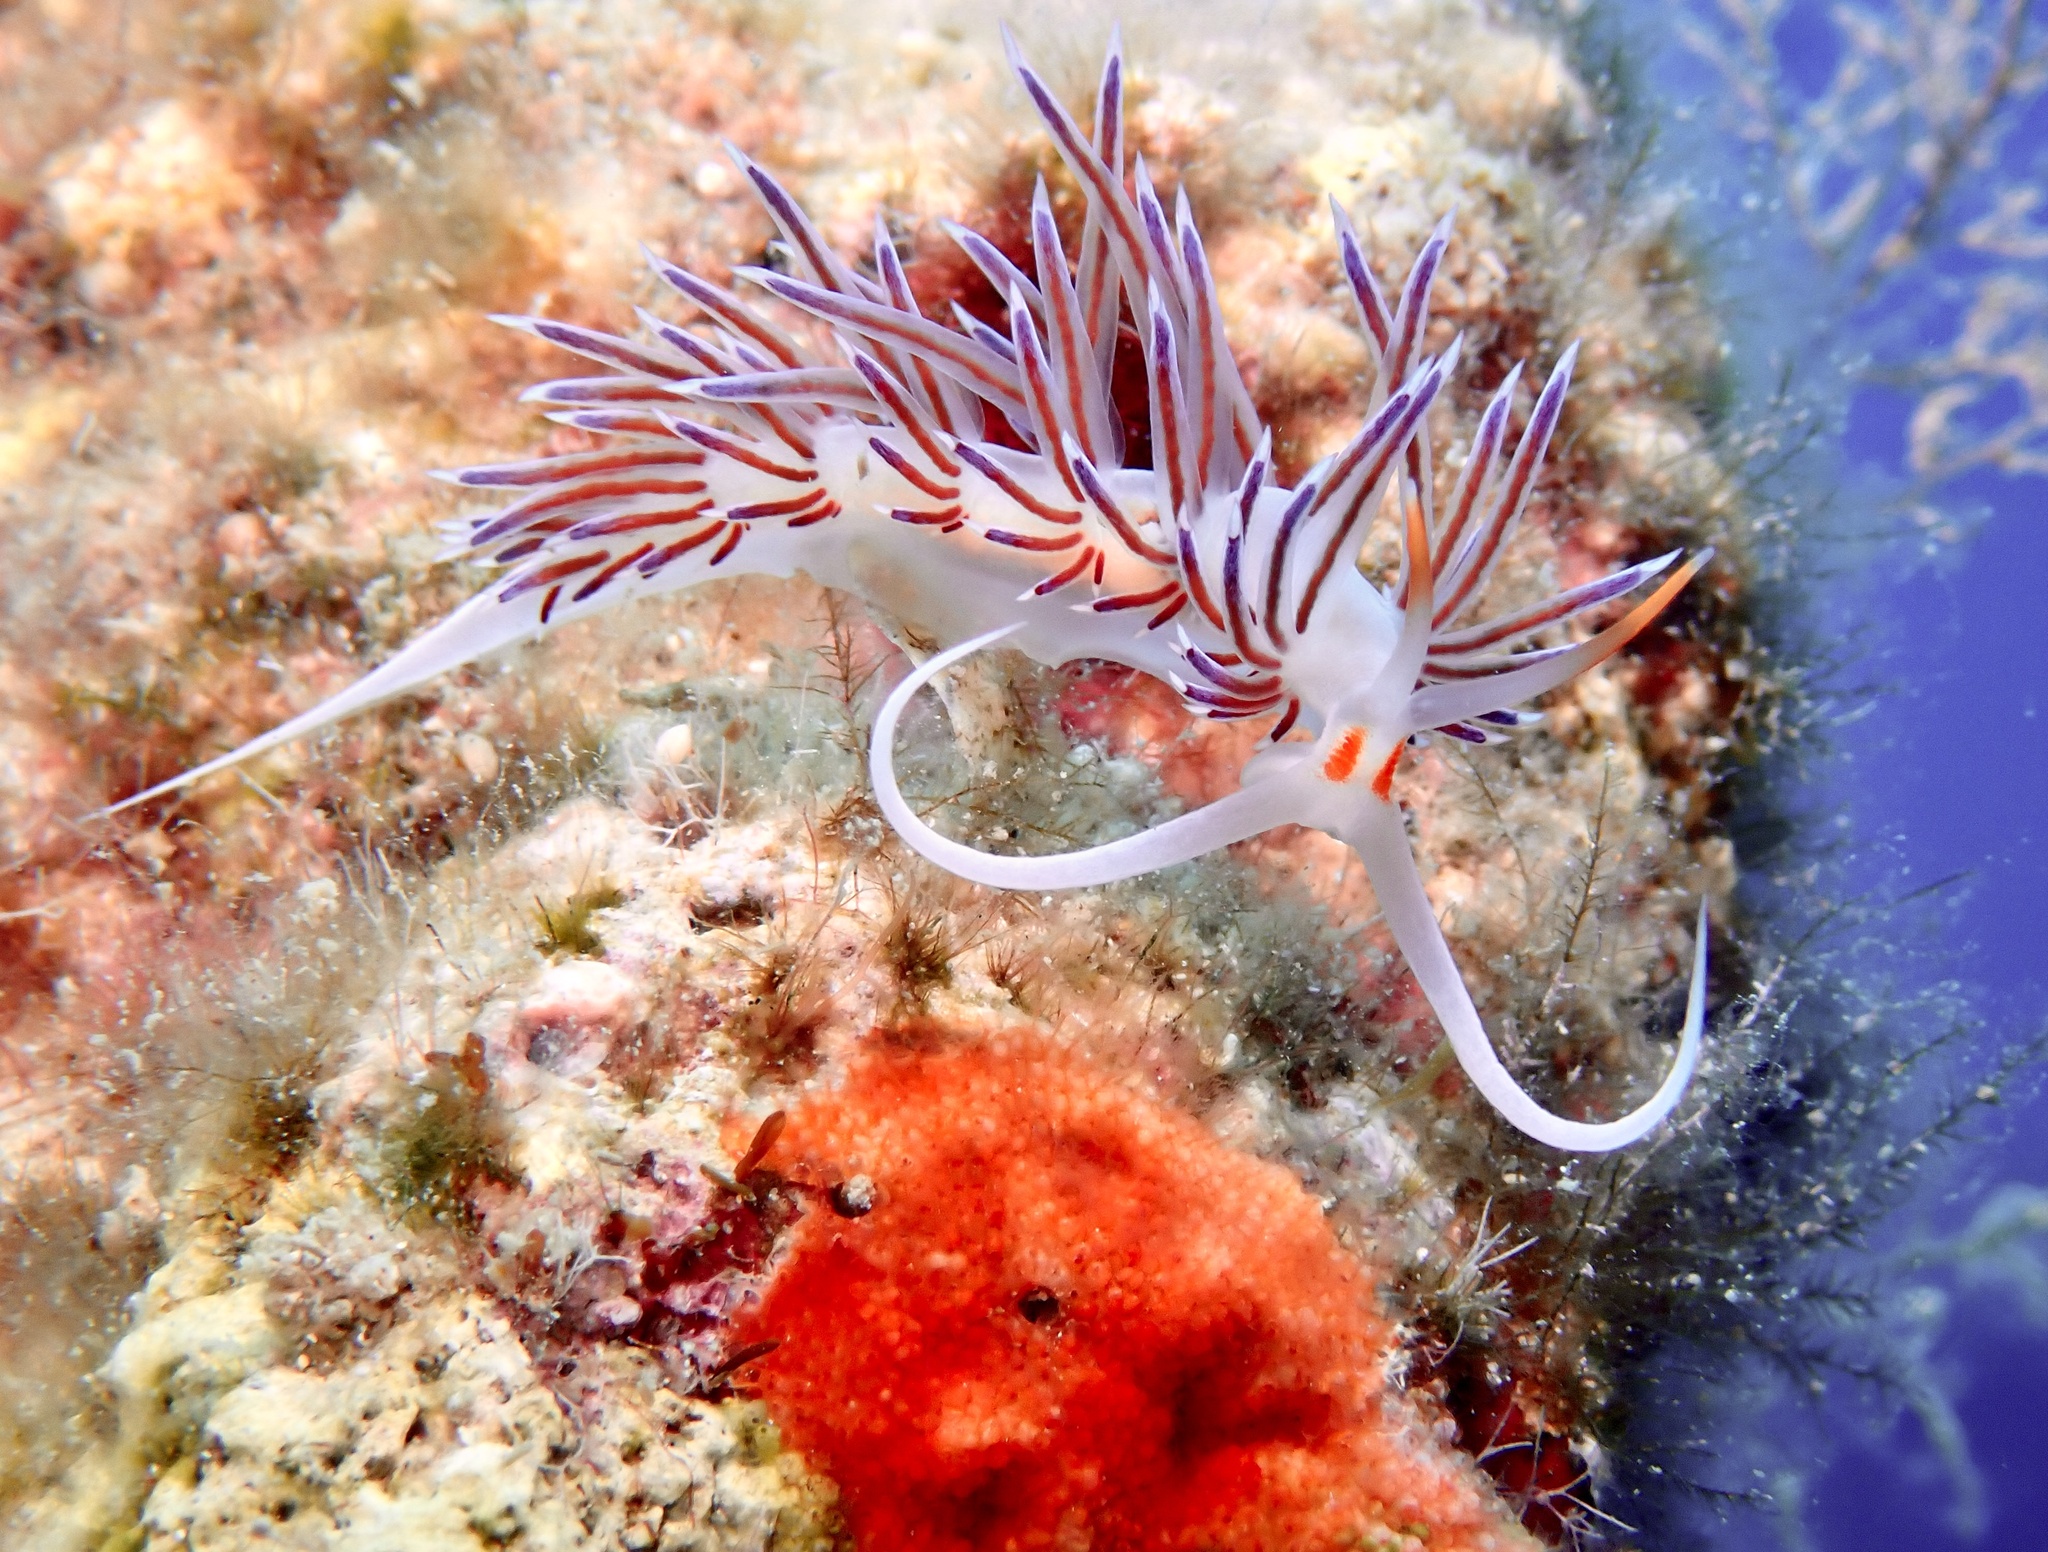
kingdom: Animalia
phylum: Mollusca
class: Gastropoda
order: Nudibranchia
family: Facelinidae
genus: Cratena
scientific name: Cratena peregrina
